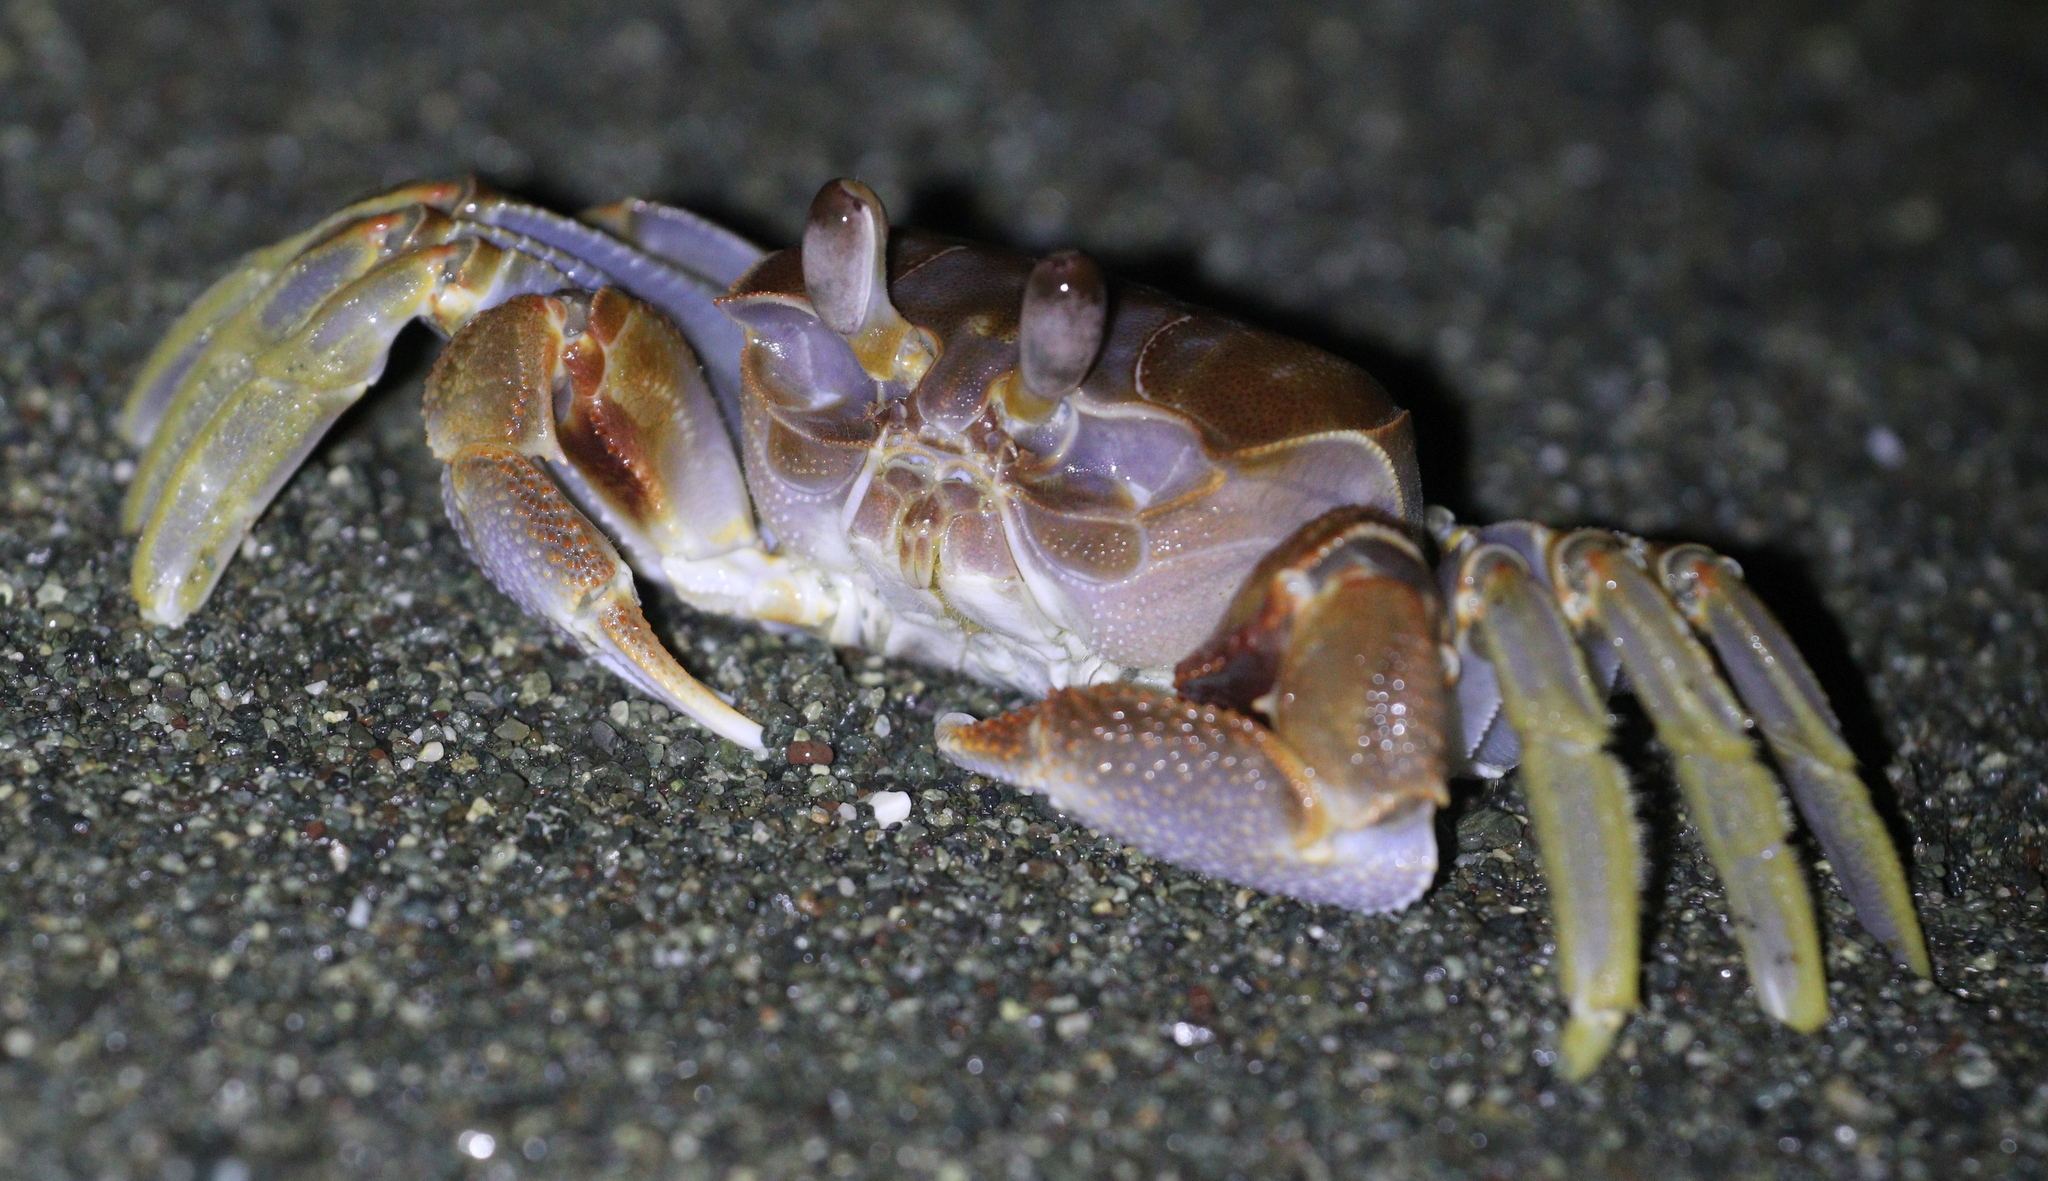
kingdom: Animalia
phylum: Arthropoda
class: Malacostraca
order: Decapoda
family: Ocypodidae
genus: Ocypode
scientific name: Ocypode occidentalis
